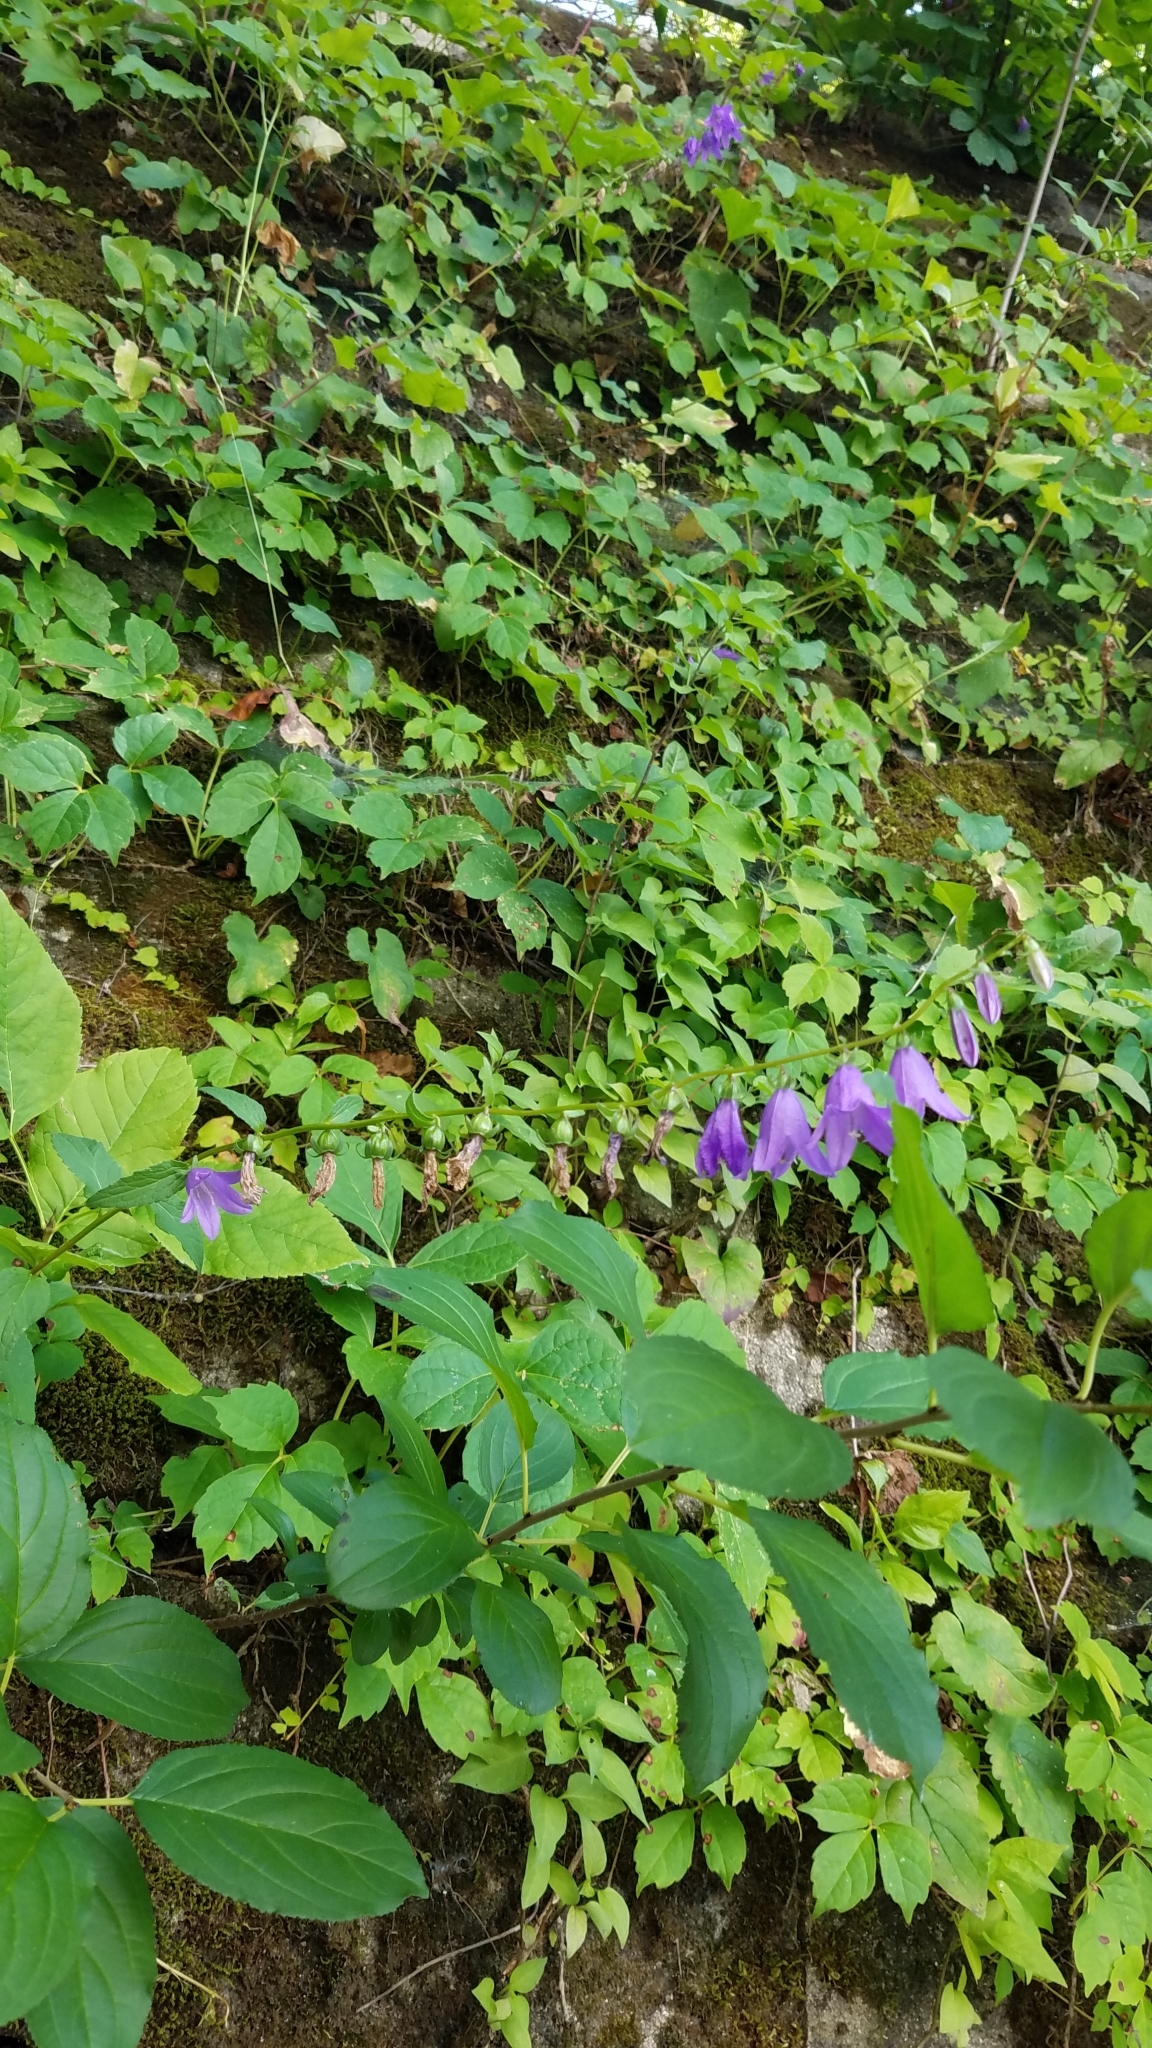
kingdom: Plantae
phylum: Tracheophyta
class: Magnoliopsida
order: Asterales
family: Campanulaceae
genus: Campanula
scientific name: Campanula rapunculoides
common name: Creeping bellflower
